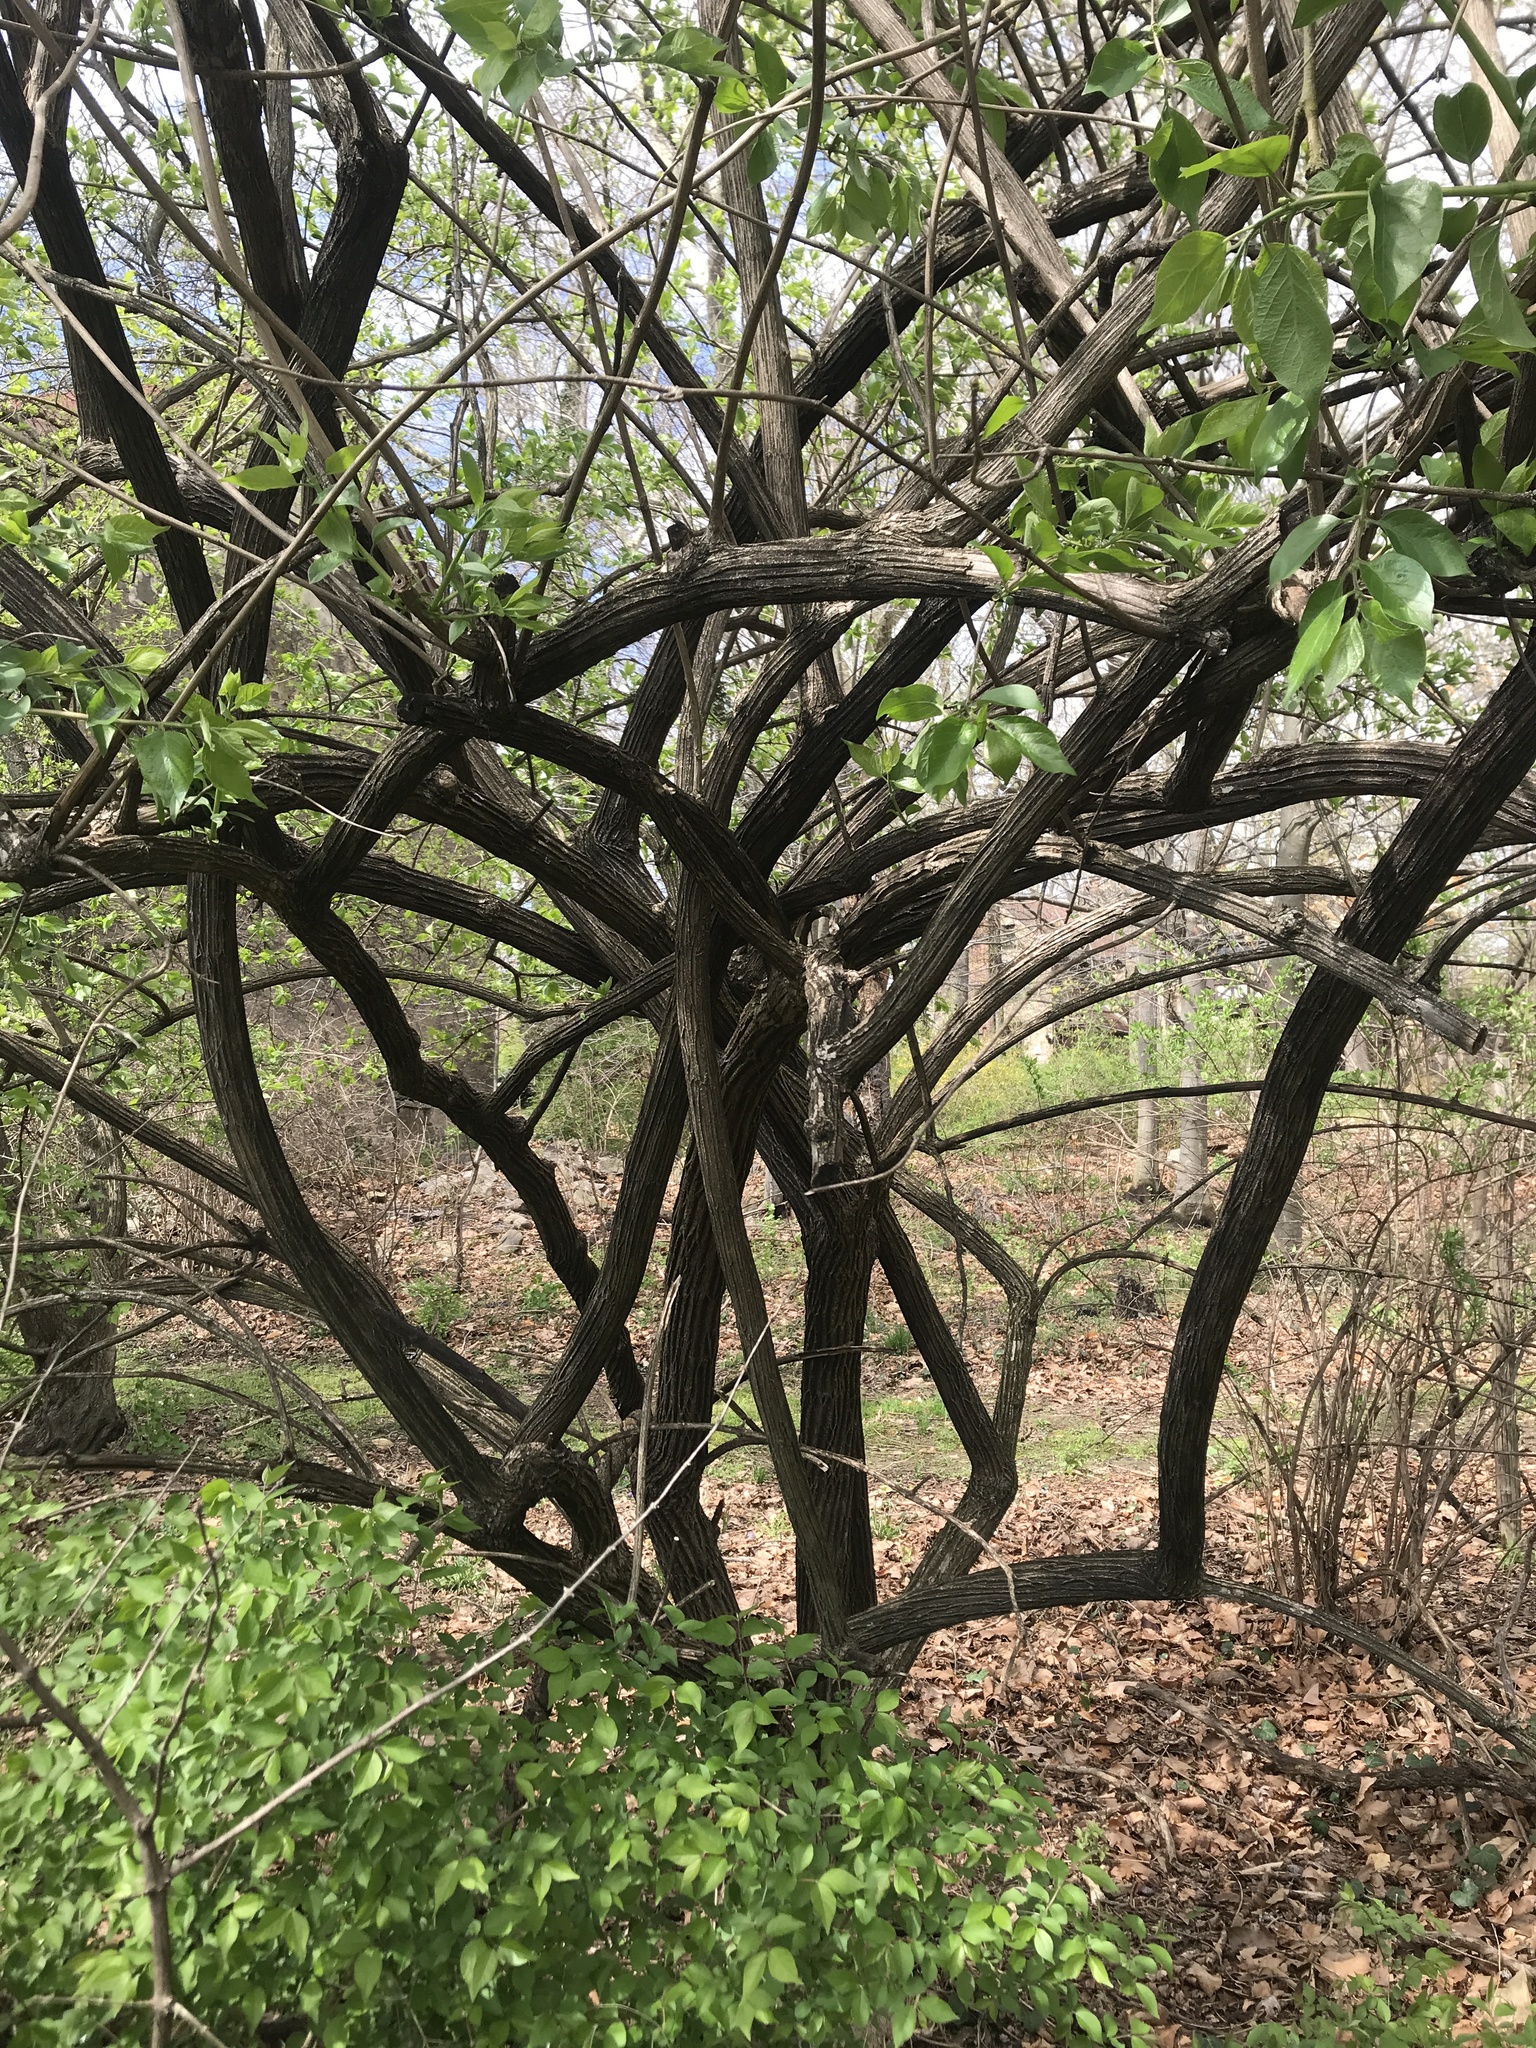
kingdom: Plantae
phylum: Tracheophyta
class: Magnoliopsida
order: Dipsacales
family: Caprifoliaceae
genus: Lonicera
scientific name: Lonicera maackii
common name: Amur honeysuckle
